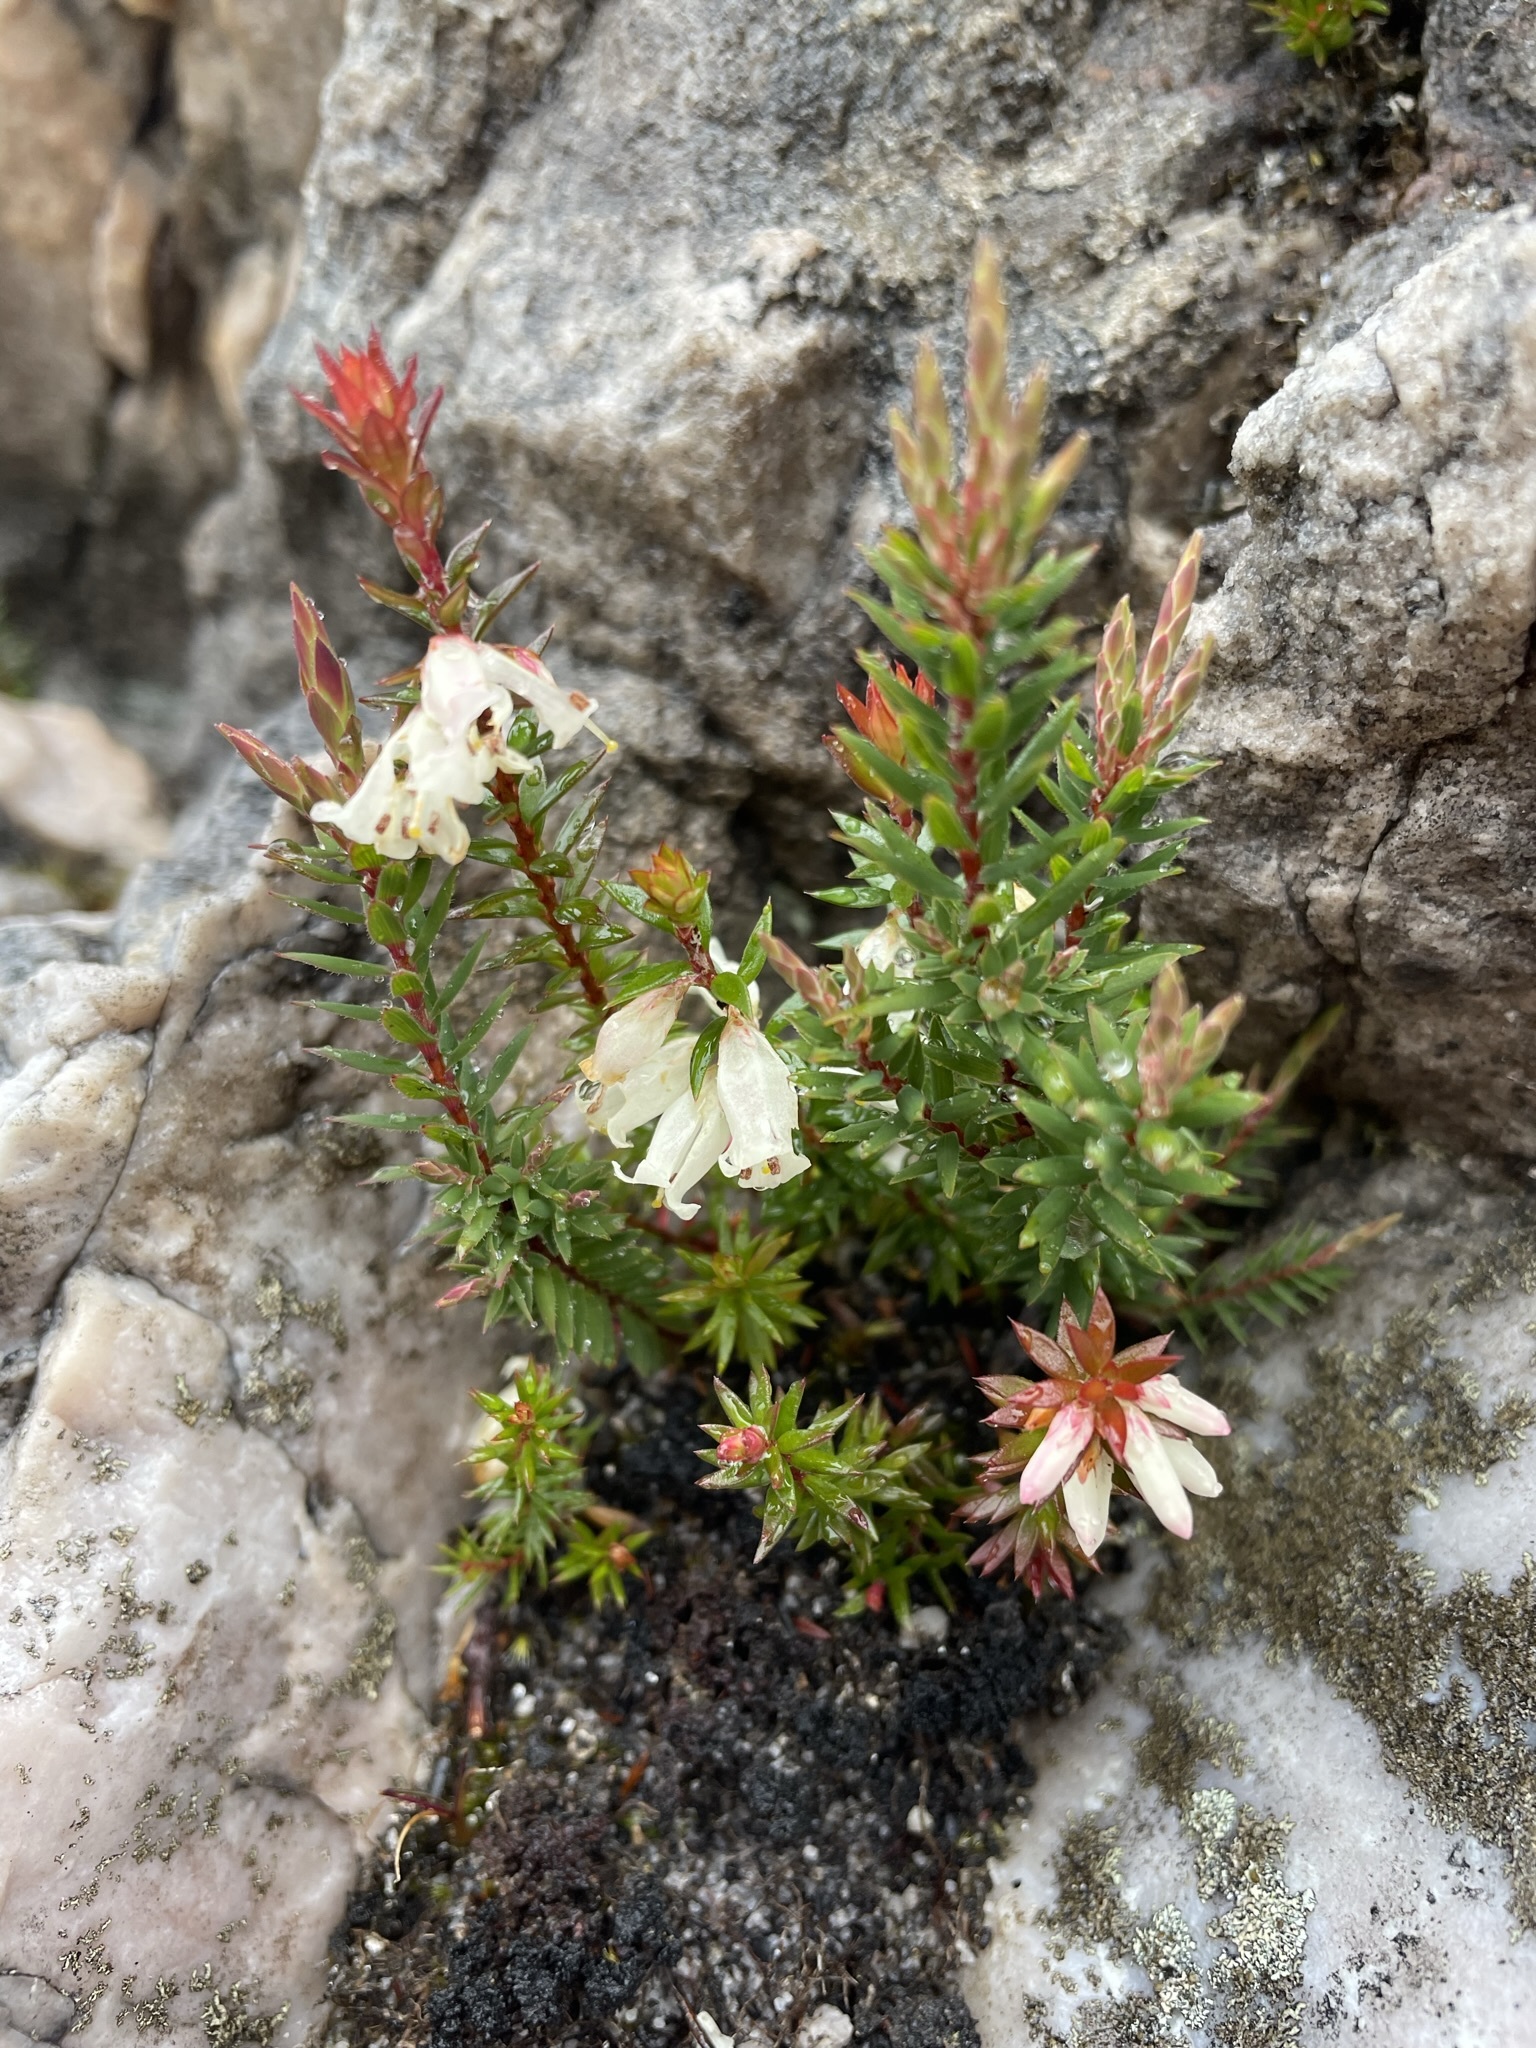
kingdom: Plantae
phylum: Tracheophyta
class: Magnoliopsida
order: Ericales
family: Ericaceae
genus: Epacris
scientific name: Epacris impressa
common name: Common-heath
